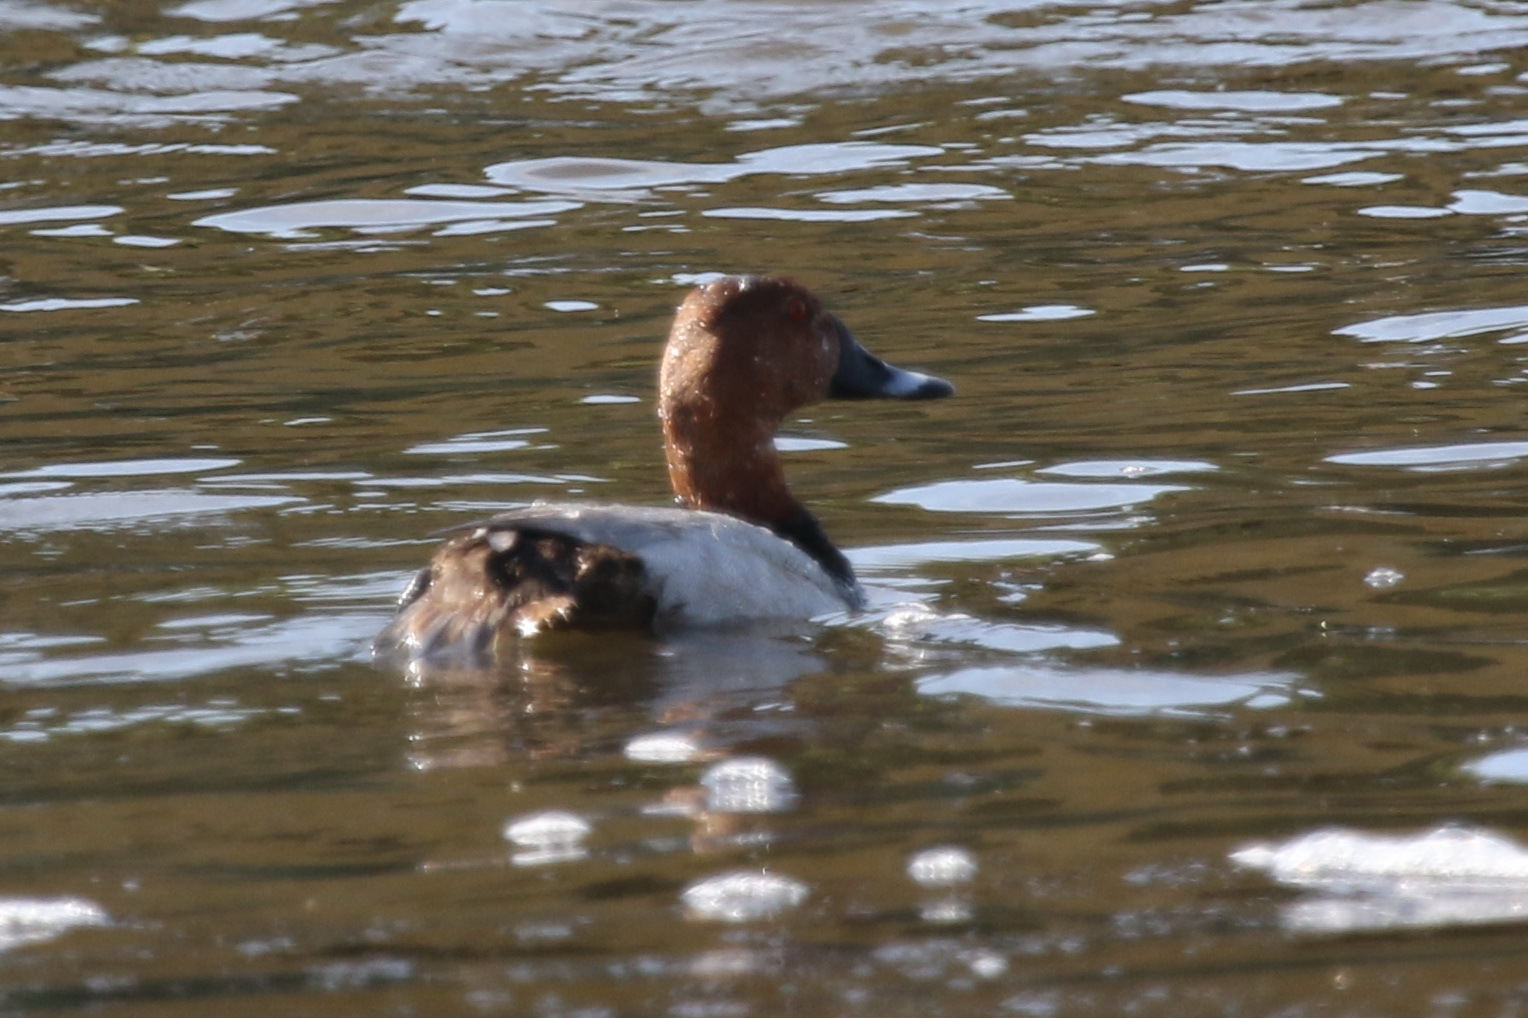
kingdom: Animalia
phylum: Chordata
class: Aves
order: Anseriformes
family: Anatidae
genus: Aythya
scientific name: Aythya ferina
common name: Common pochard
